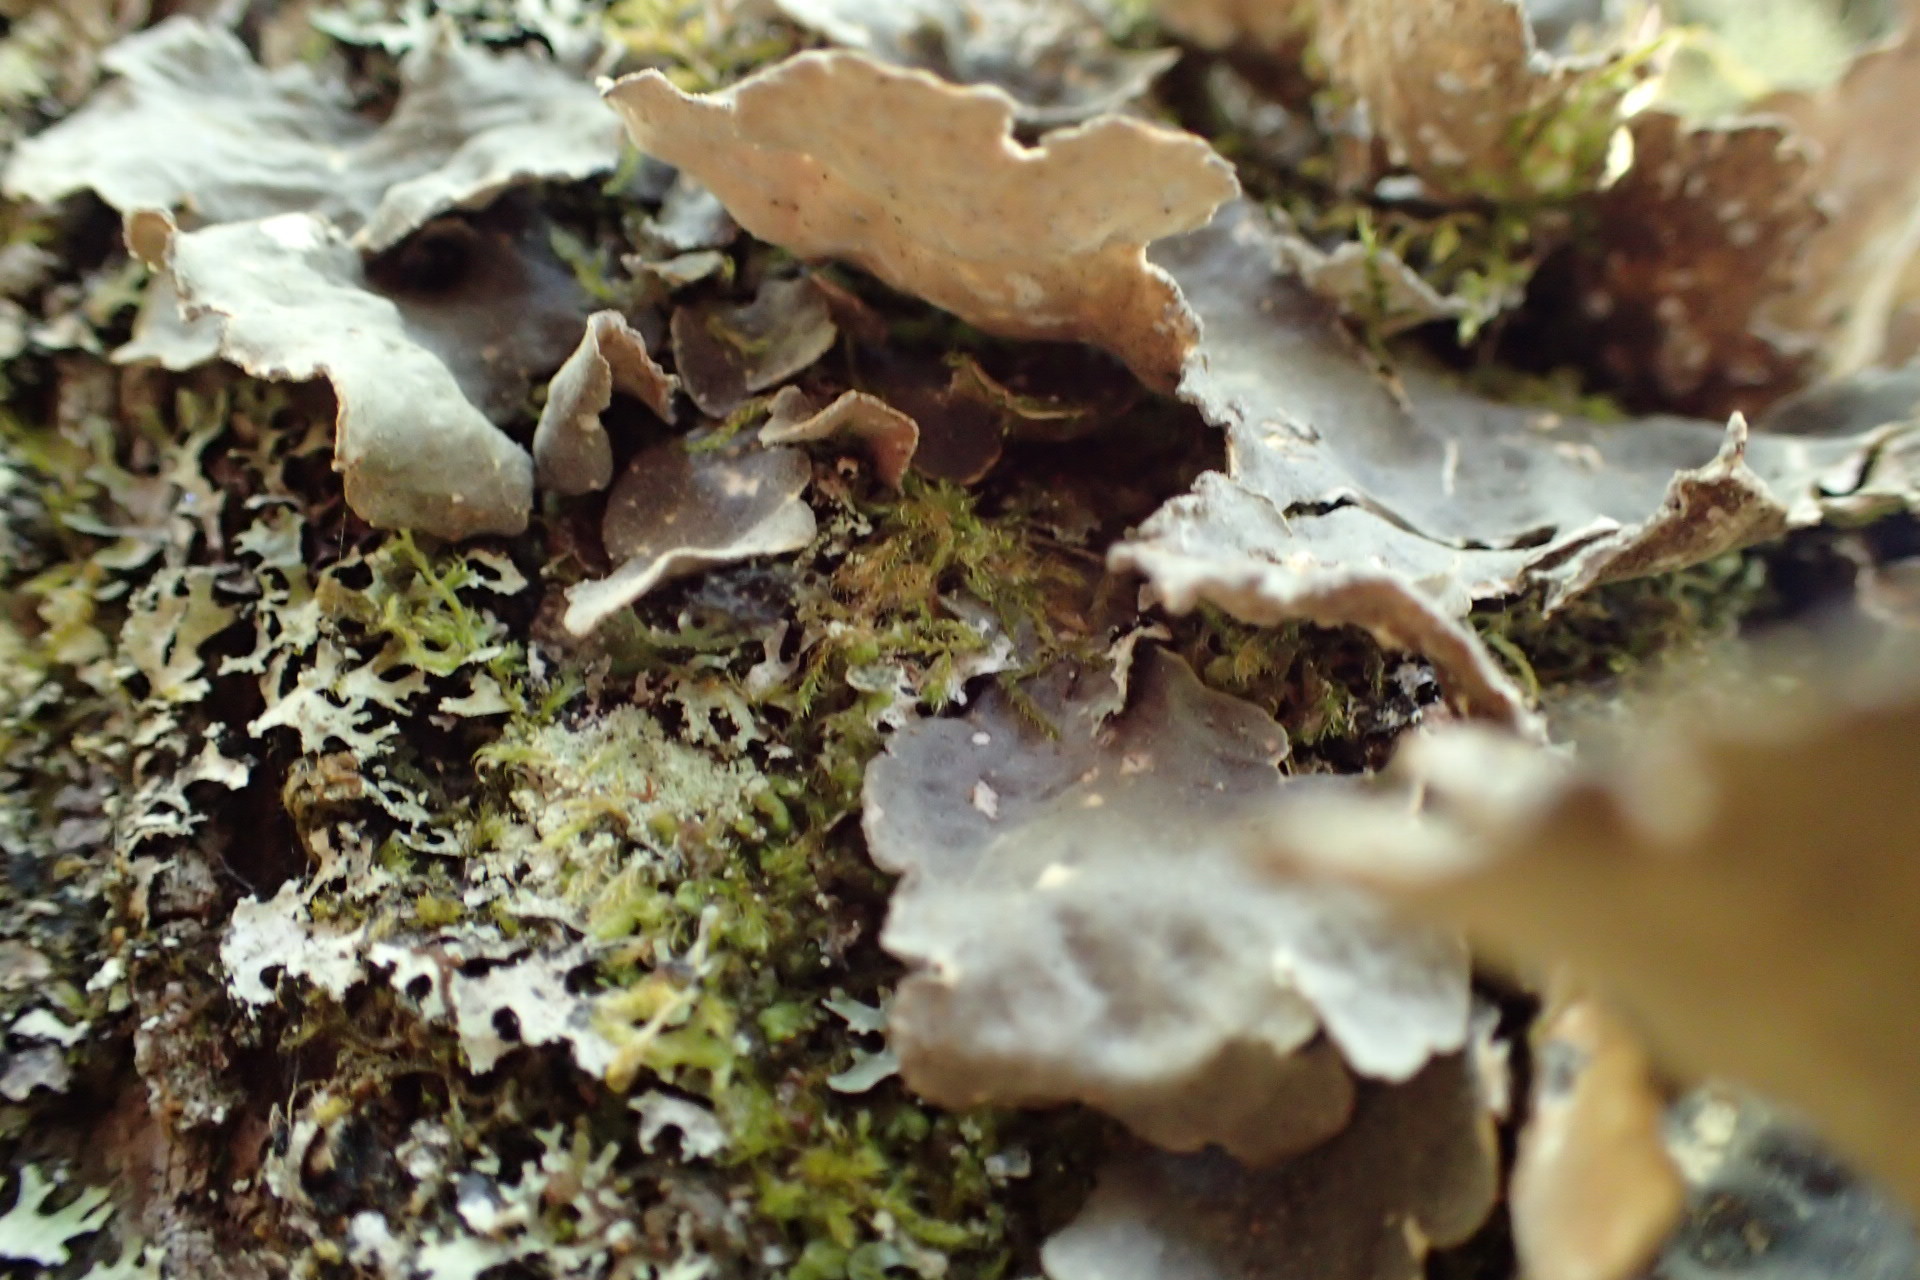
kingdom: Fungi
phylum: Ascomycota
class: Lecanoromycetes
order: Peltigerales
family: Lobariaceae
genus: Lobarina
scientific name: Lobarina scrobiculata
